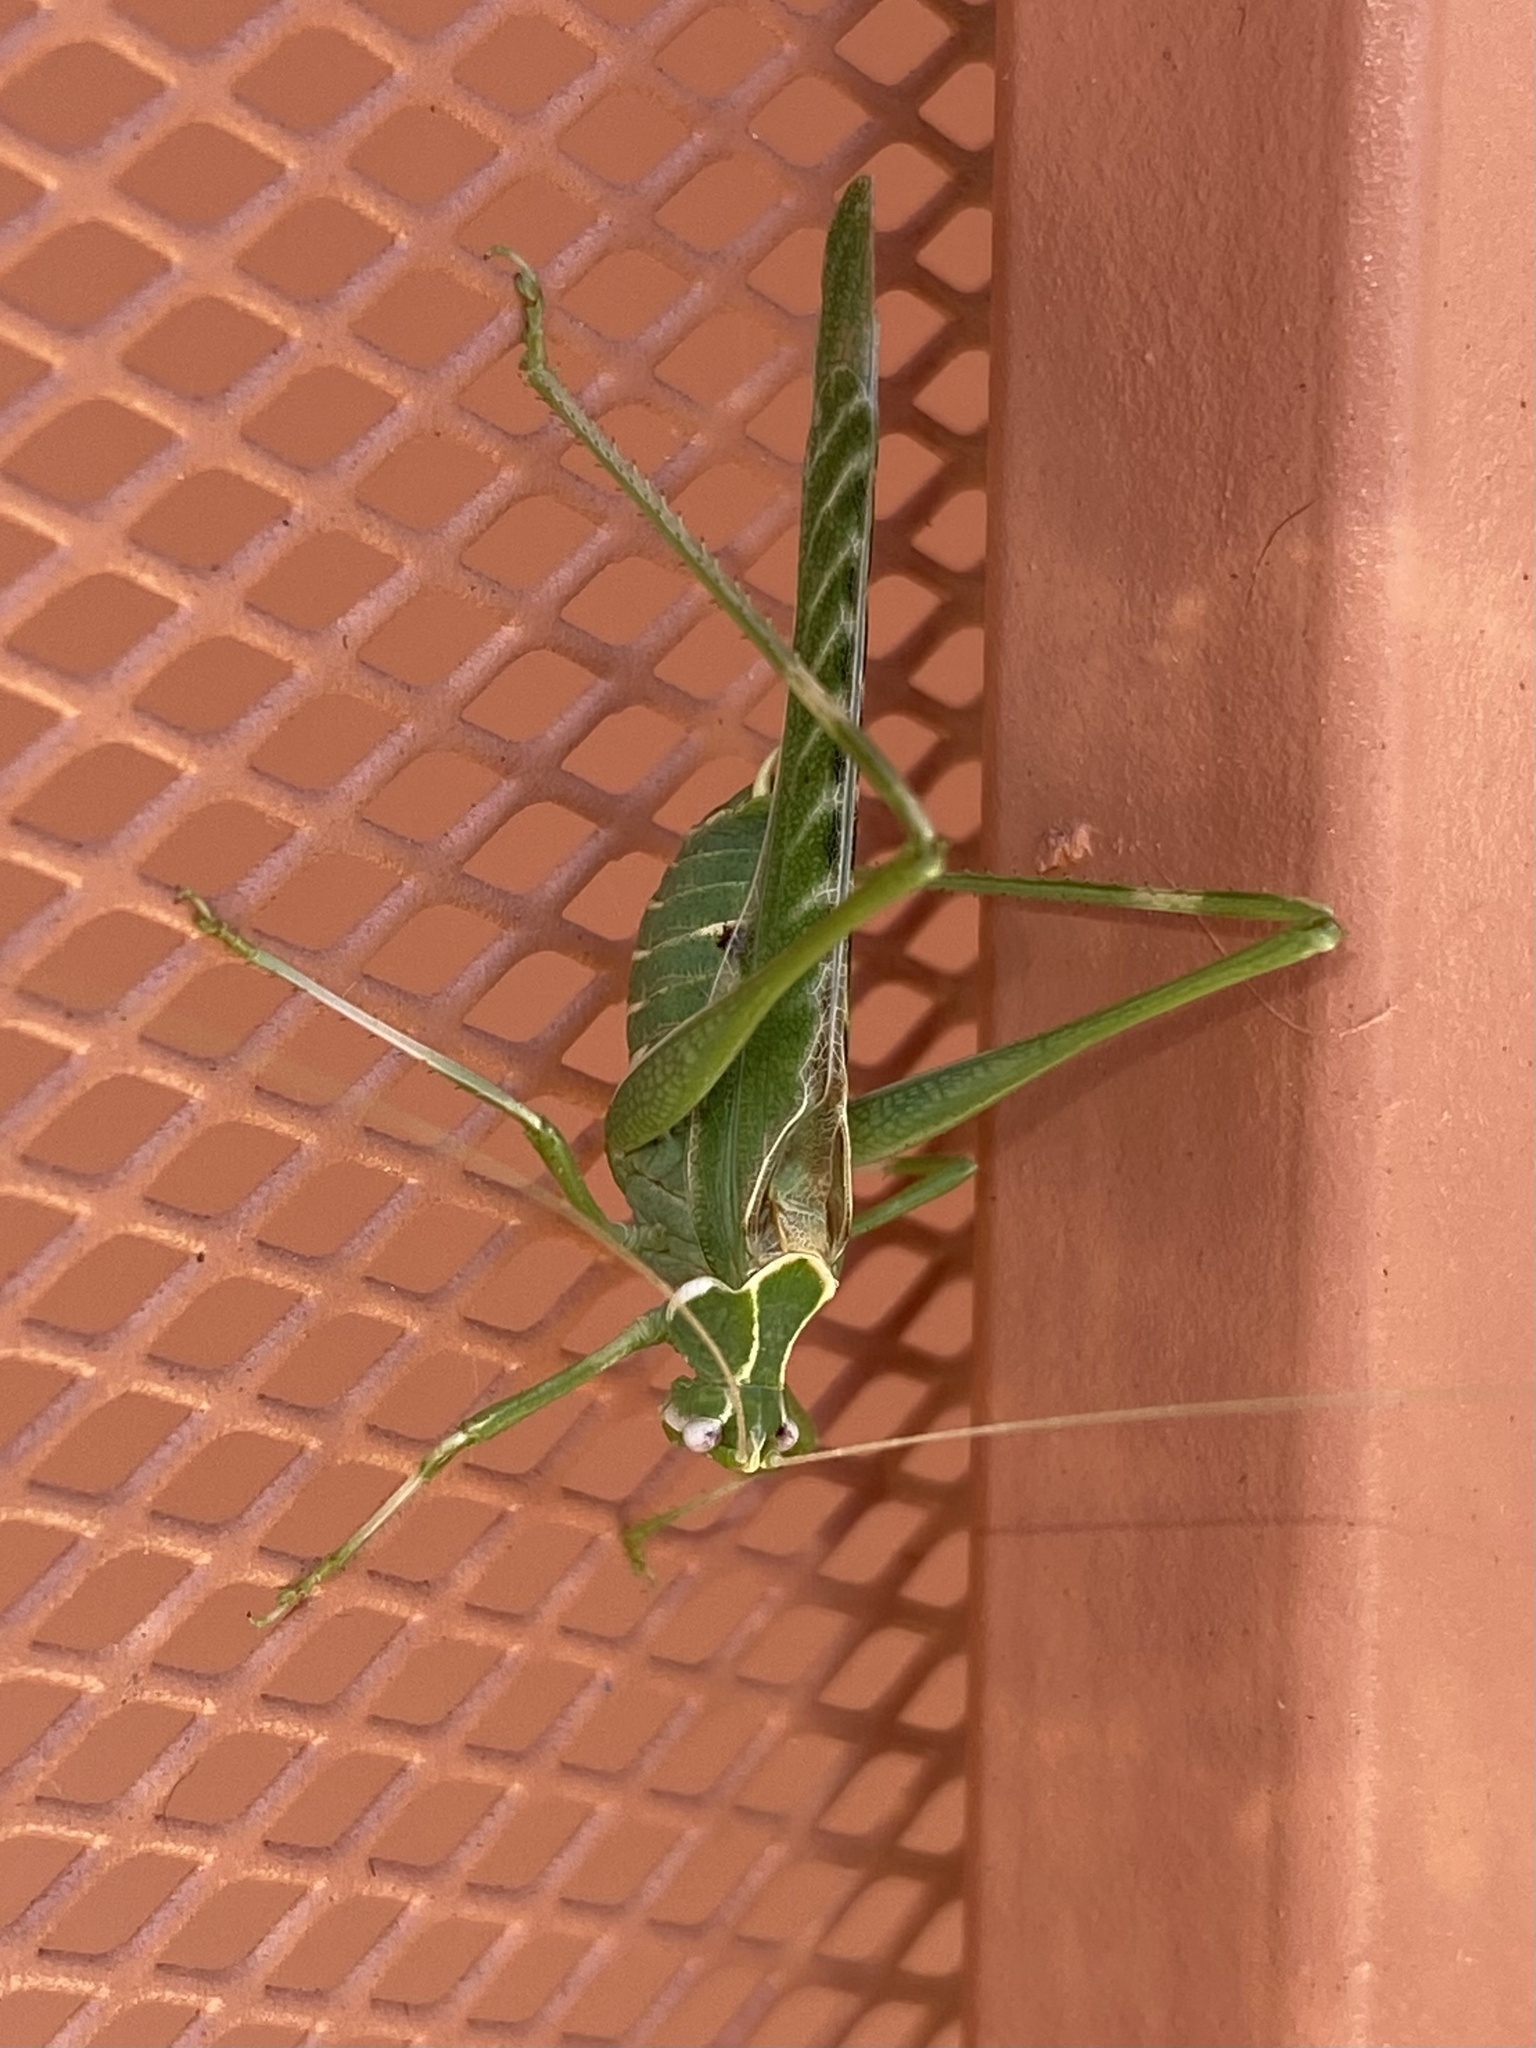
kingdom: Animalia
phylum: Arthropoda
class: Insecta
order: Orthoptera
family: Tettigoniidae
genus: Insara
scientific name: Insara elegans
